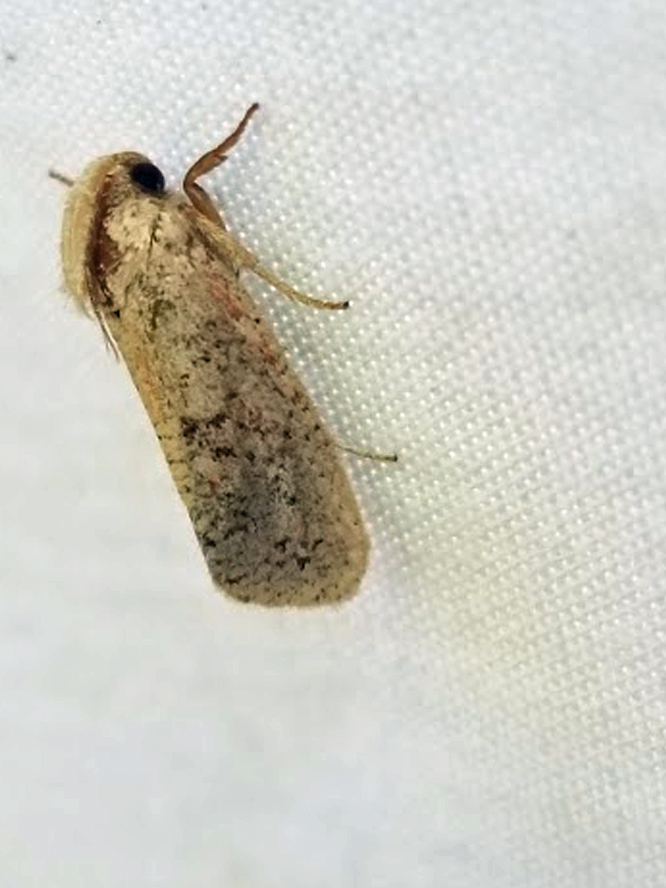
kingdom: Animalia
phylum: Arthropoda
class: Insecta
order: Lepidoptera
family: Tineidae
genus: Acrolophus
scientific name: Acrolophus plumifrontella
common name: Eastern grass tubeworm moth
